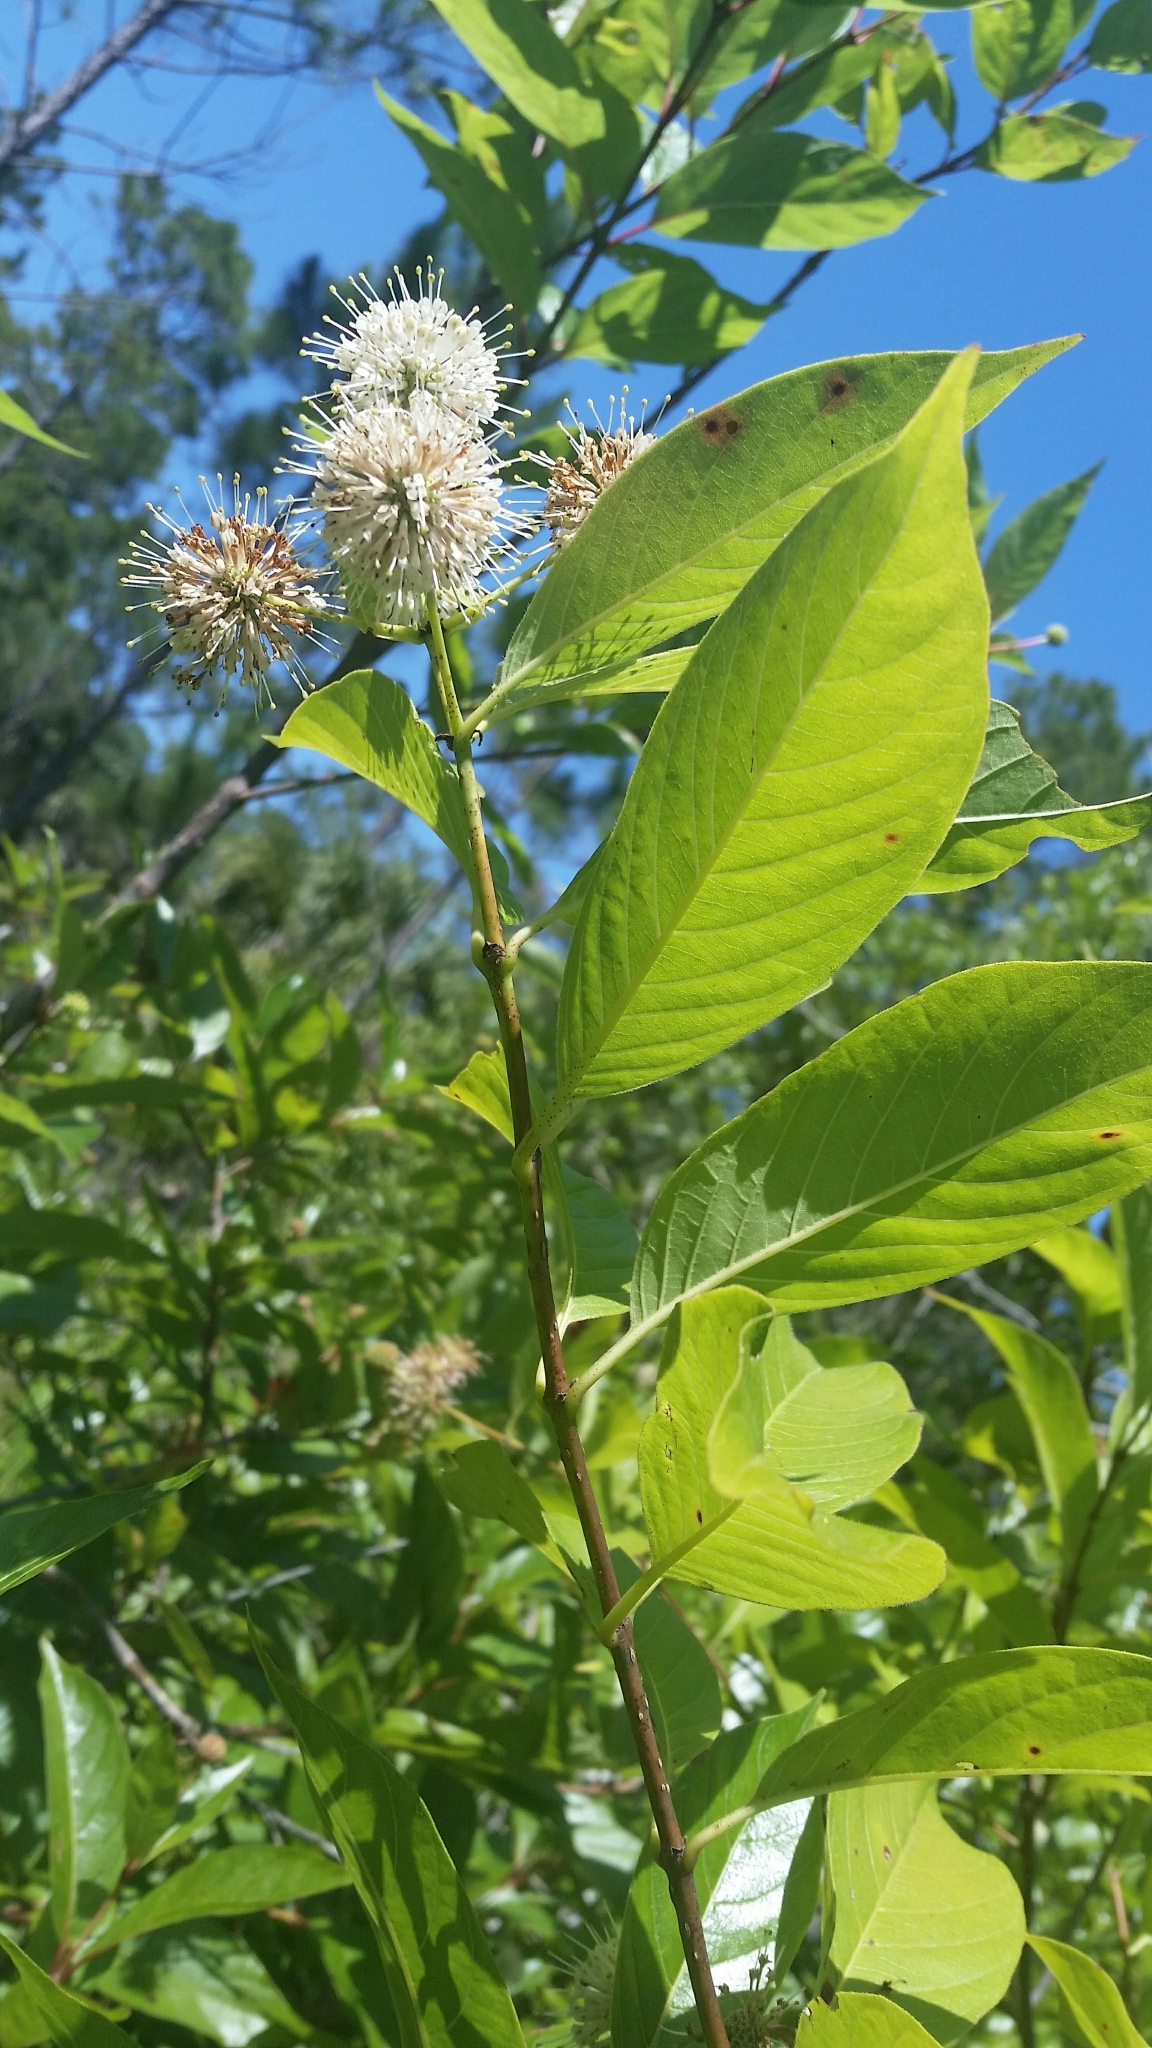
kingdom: Plantae
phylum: Tracheophyta
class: Magnoliopsida
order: Gentianales
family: Rubiaceae
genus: Cephalanthus
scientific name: Cephalanthus occidentalis
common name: Button-willow
